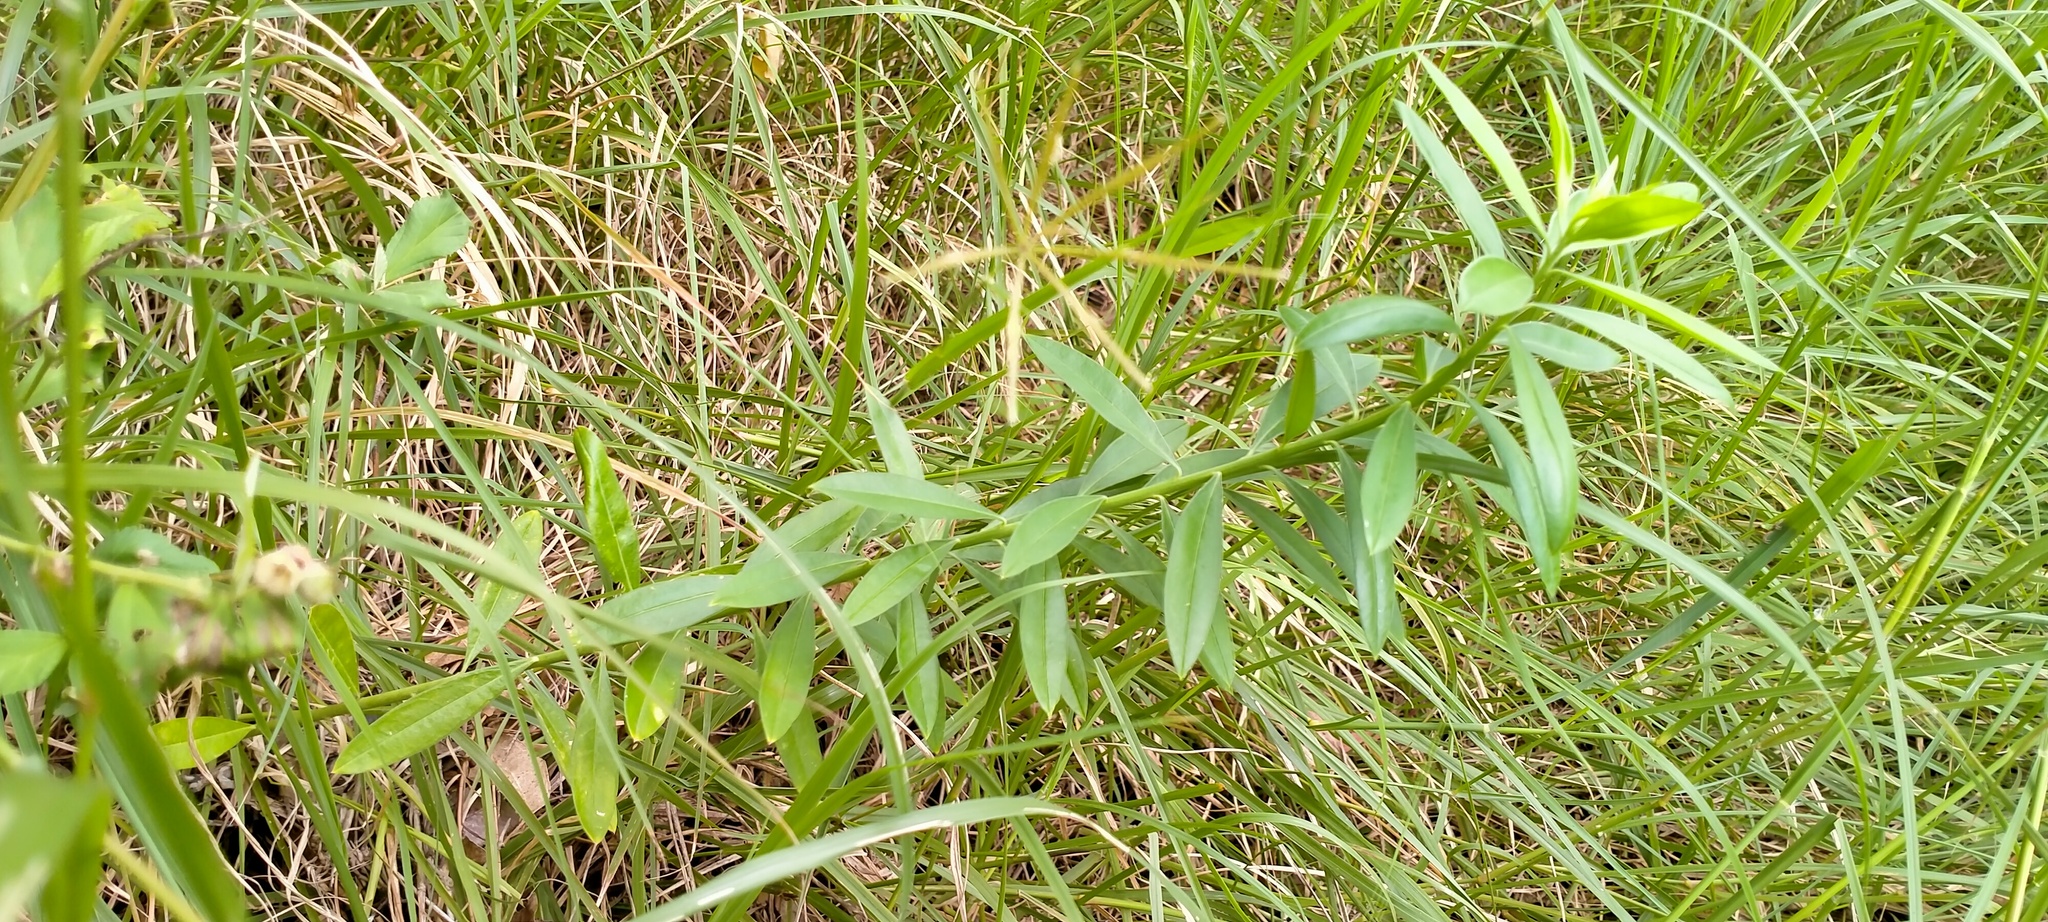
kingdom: Plantae
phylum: Tracheophyta
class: Magnoliopsida
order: Fabales
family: Polygalaceae
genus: Polygala
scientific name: Polygala virgata
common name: Milkwort
